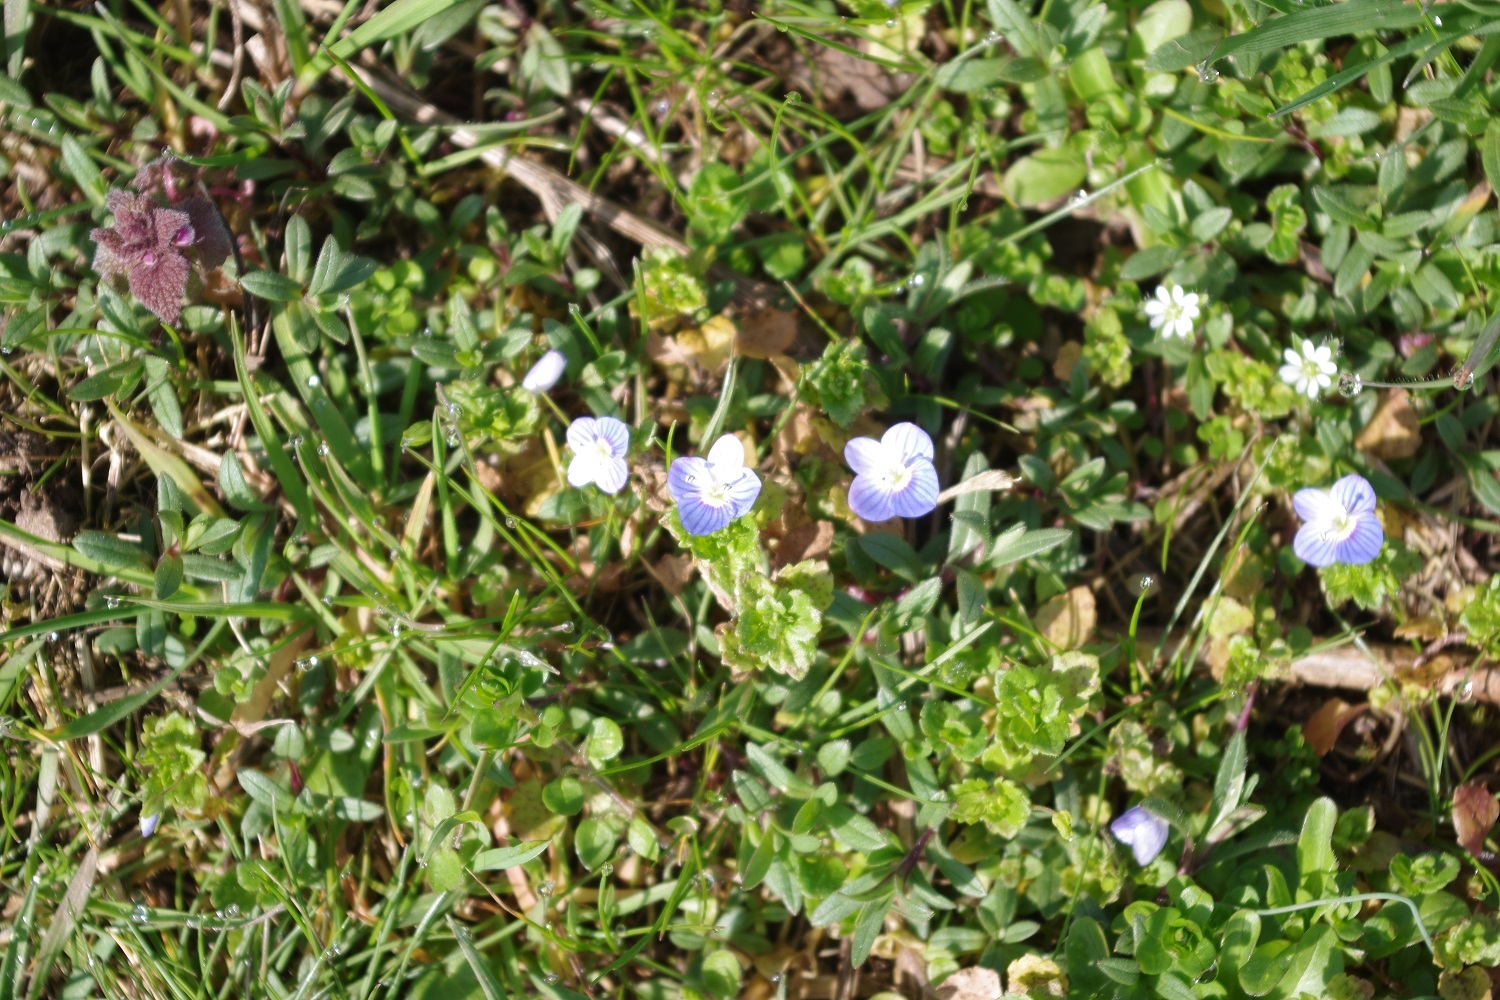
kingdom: Plantae
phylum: Tracheophyta
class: Magnoliopsida
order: Lamiales
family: Plantaginaceae
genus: Veronica
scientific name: Veronica persica
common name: Common field-speedwell
